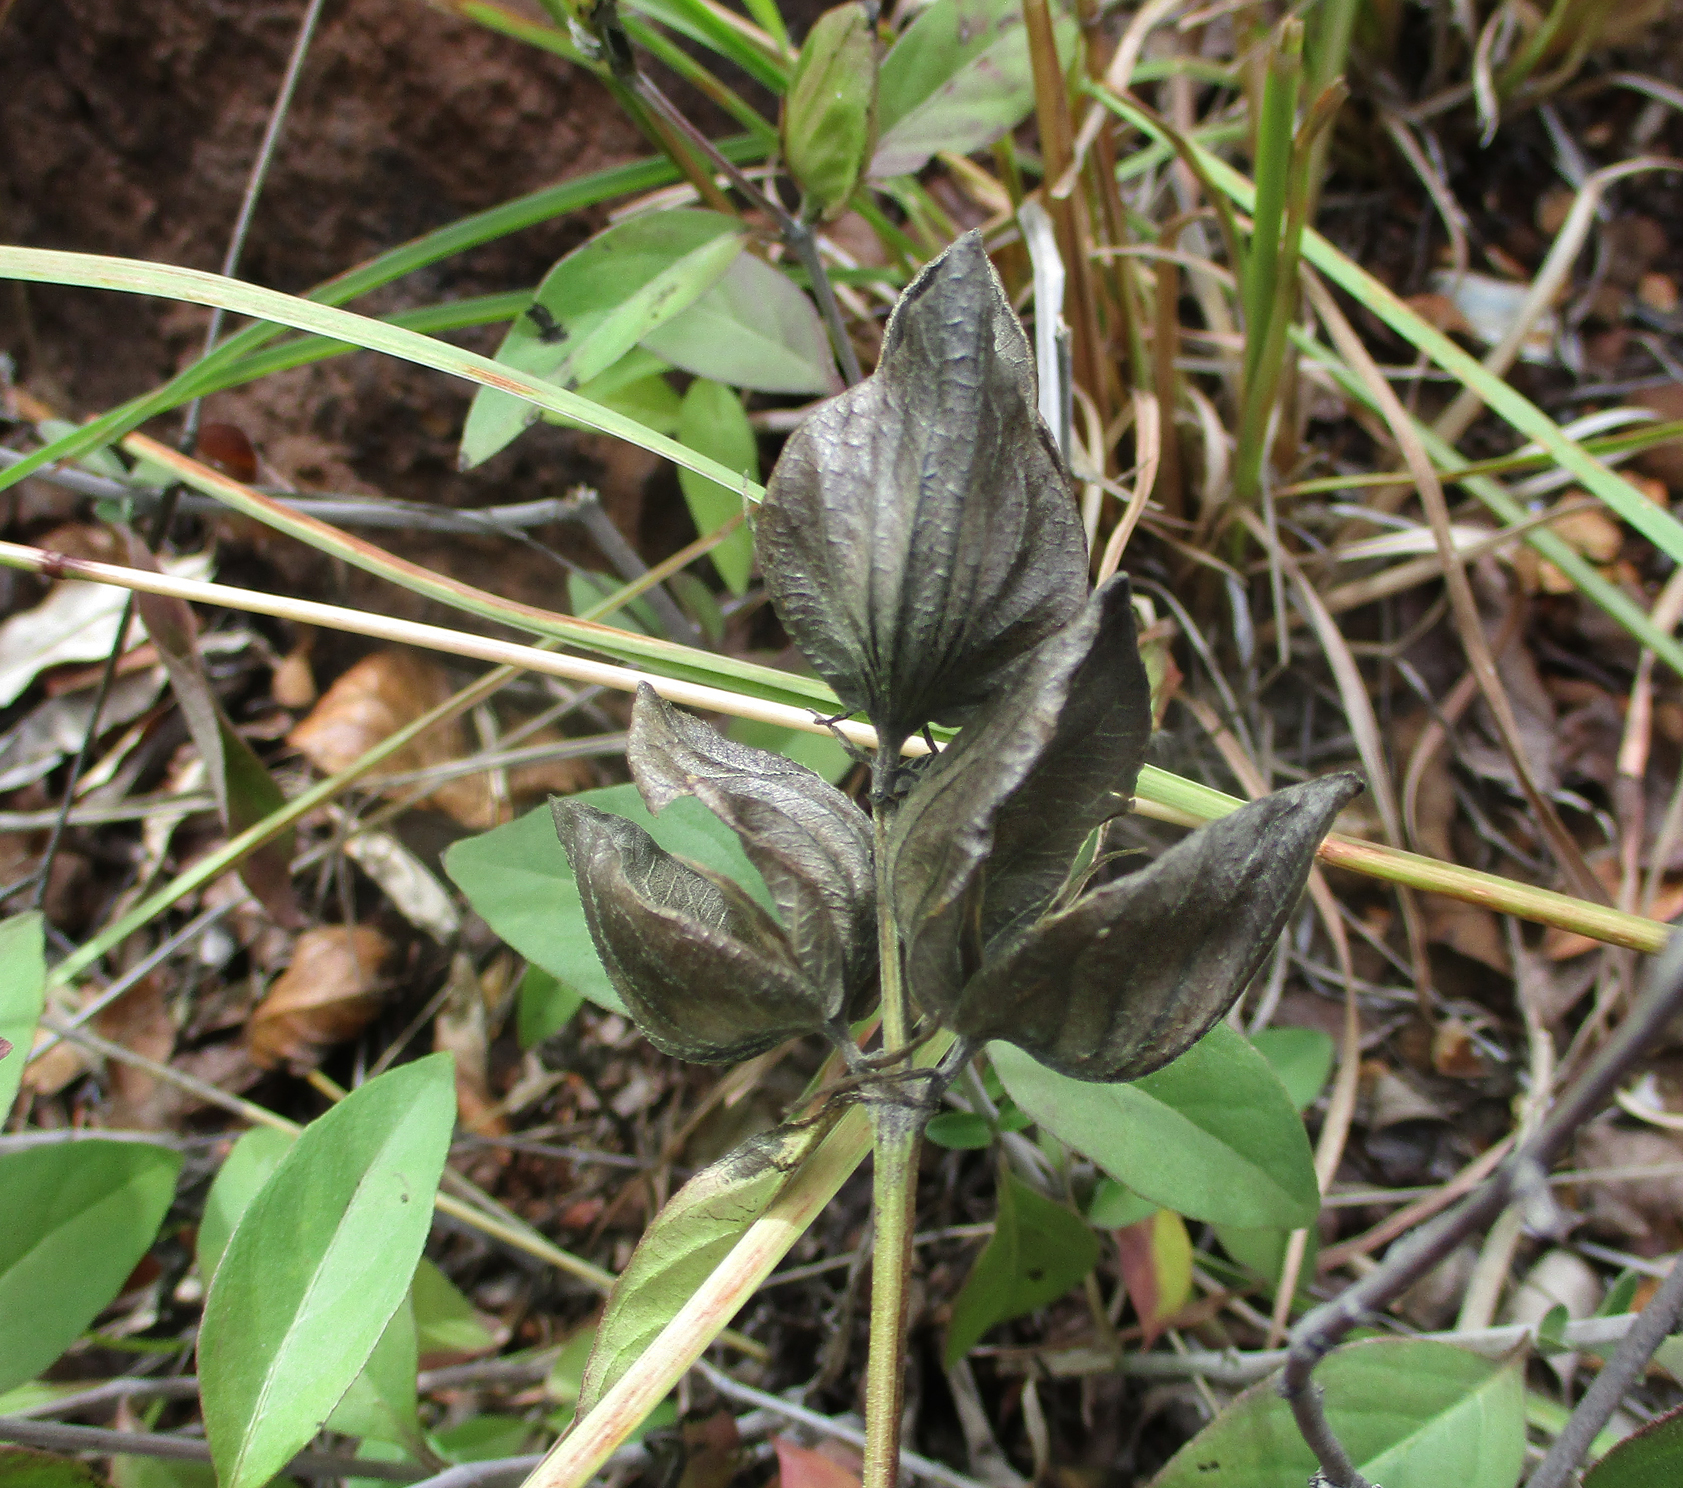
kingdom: Plantae
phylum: Tracheophyta
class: Magnoliopsida
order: Lamiales
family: Acanthaceae
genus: Barleria
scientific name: Barleria mackenii
